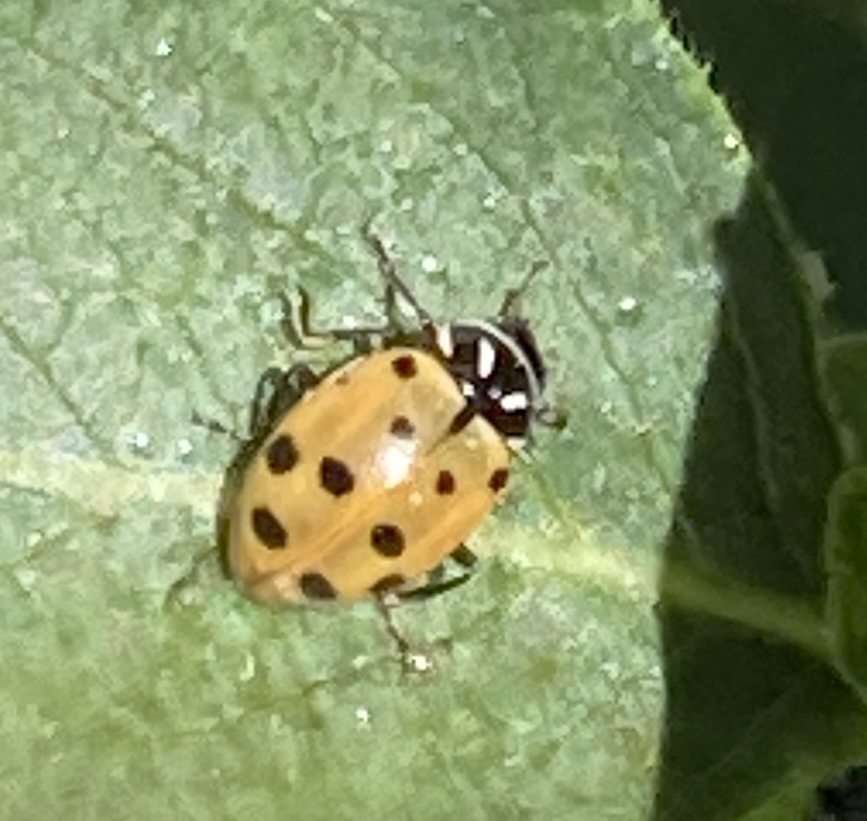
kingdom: Animalia
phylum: Arthropoda
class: Insecta
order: Coleoptera
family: Coccinellidae
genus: Hippodamia
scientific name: Hippodamia convergens
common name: Convergent lady beetle
